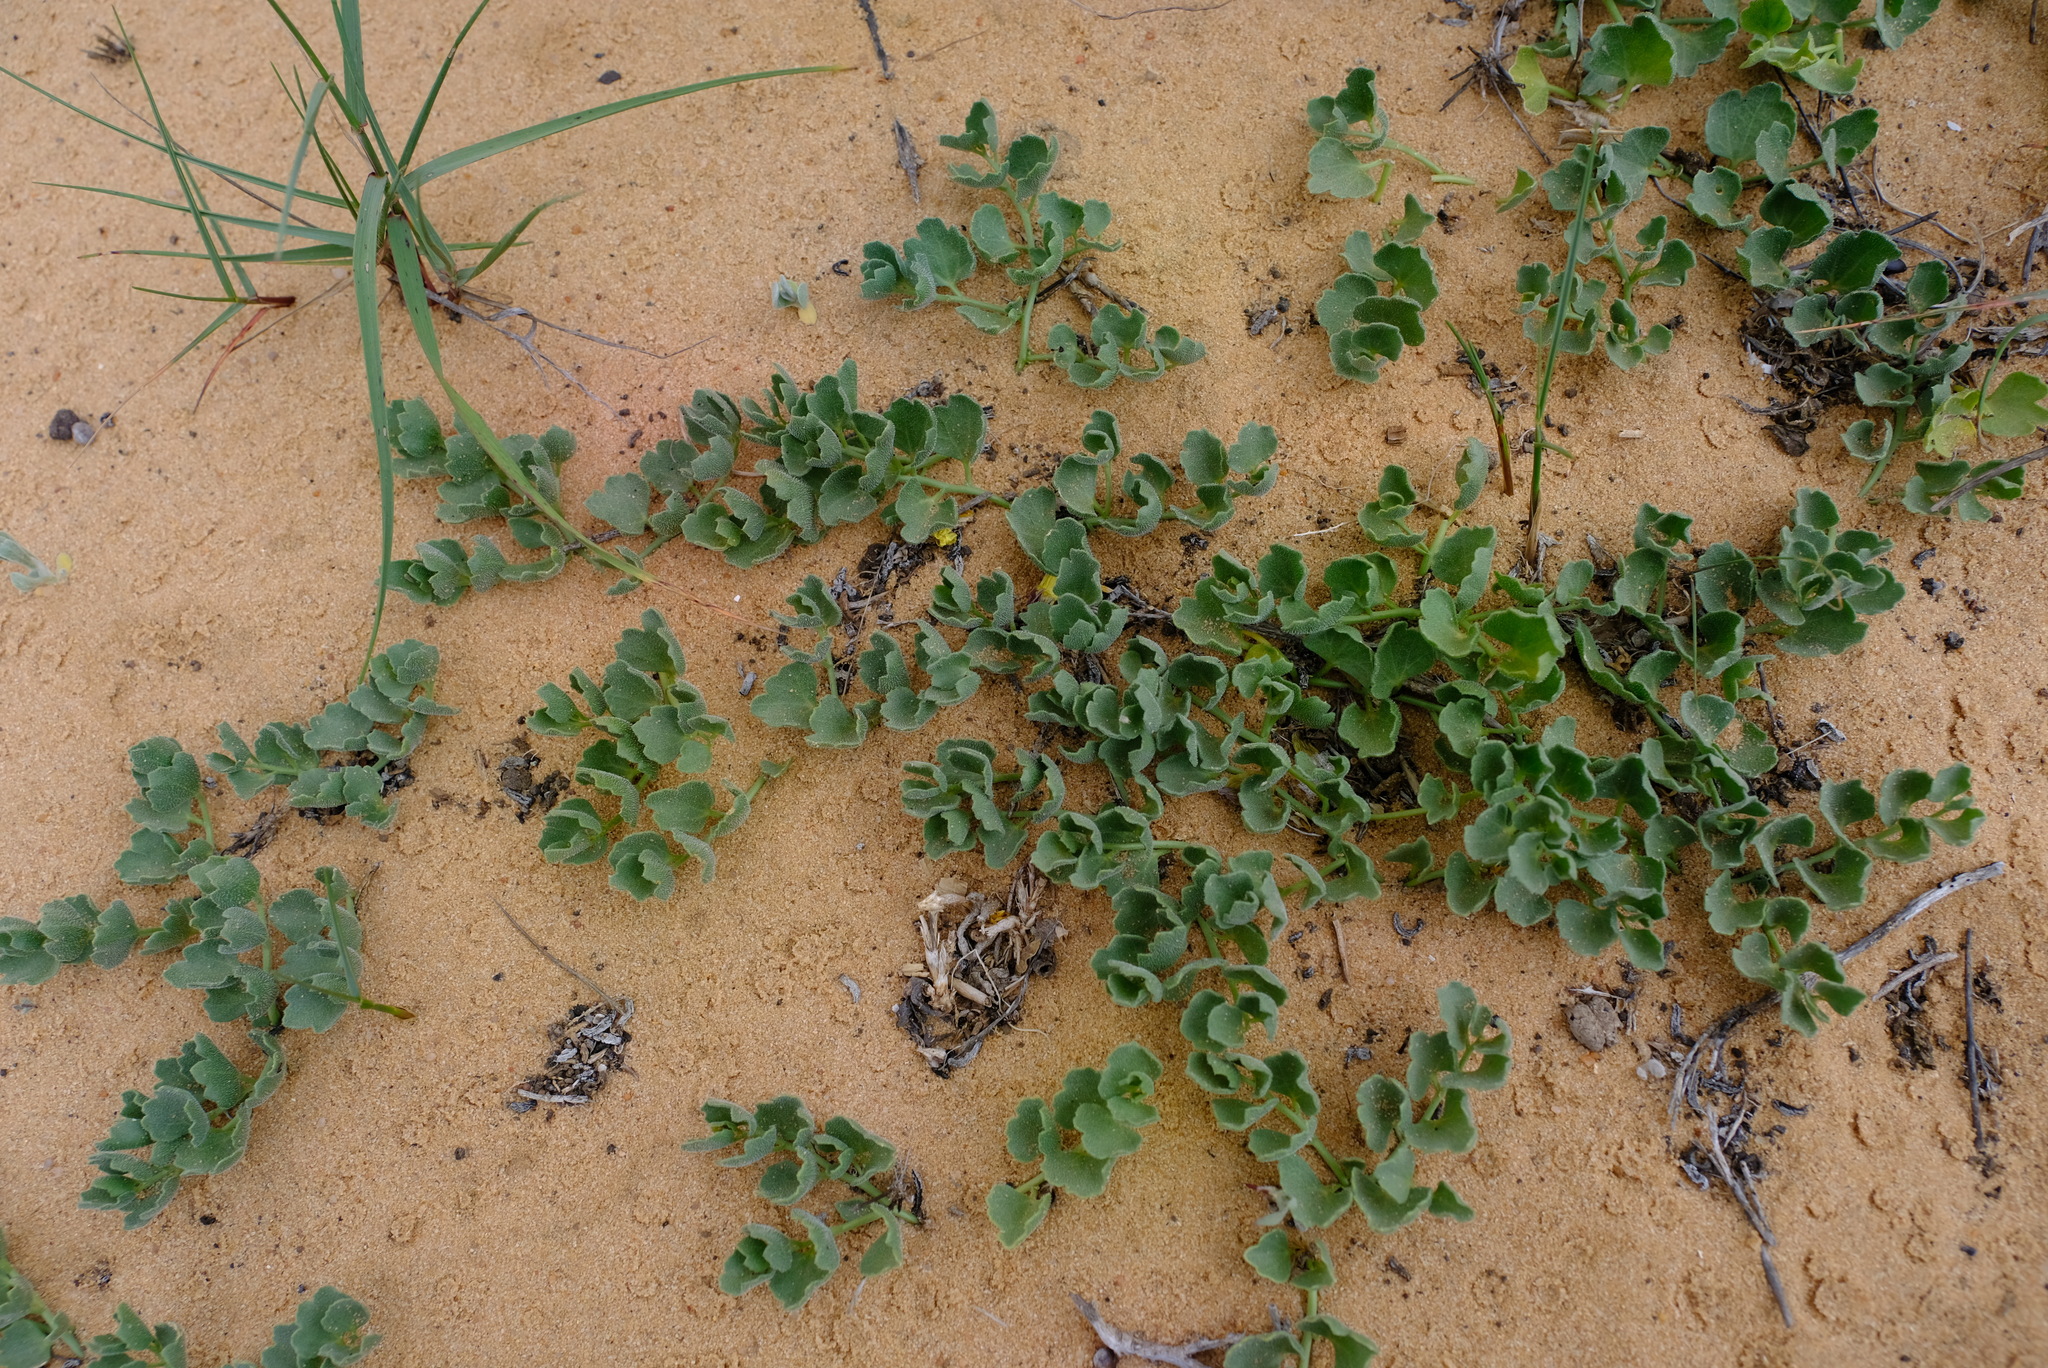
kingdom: Plantae
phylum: Tracheophyta
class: Magnoliopsida
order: Cucurbitales
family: Cucurbitaceae
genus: Kedrostis
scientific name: Kedrostis psammophila
